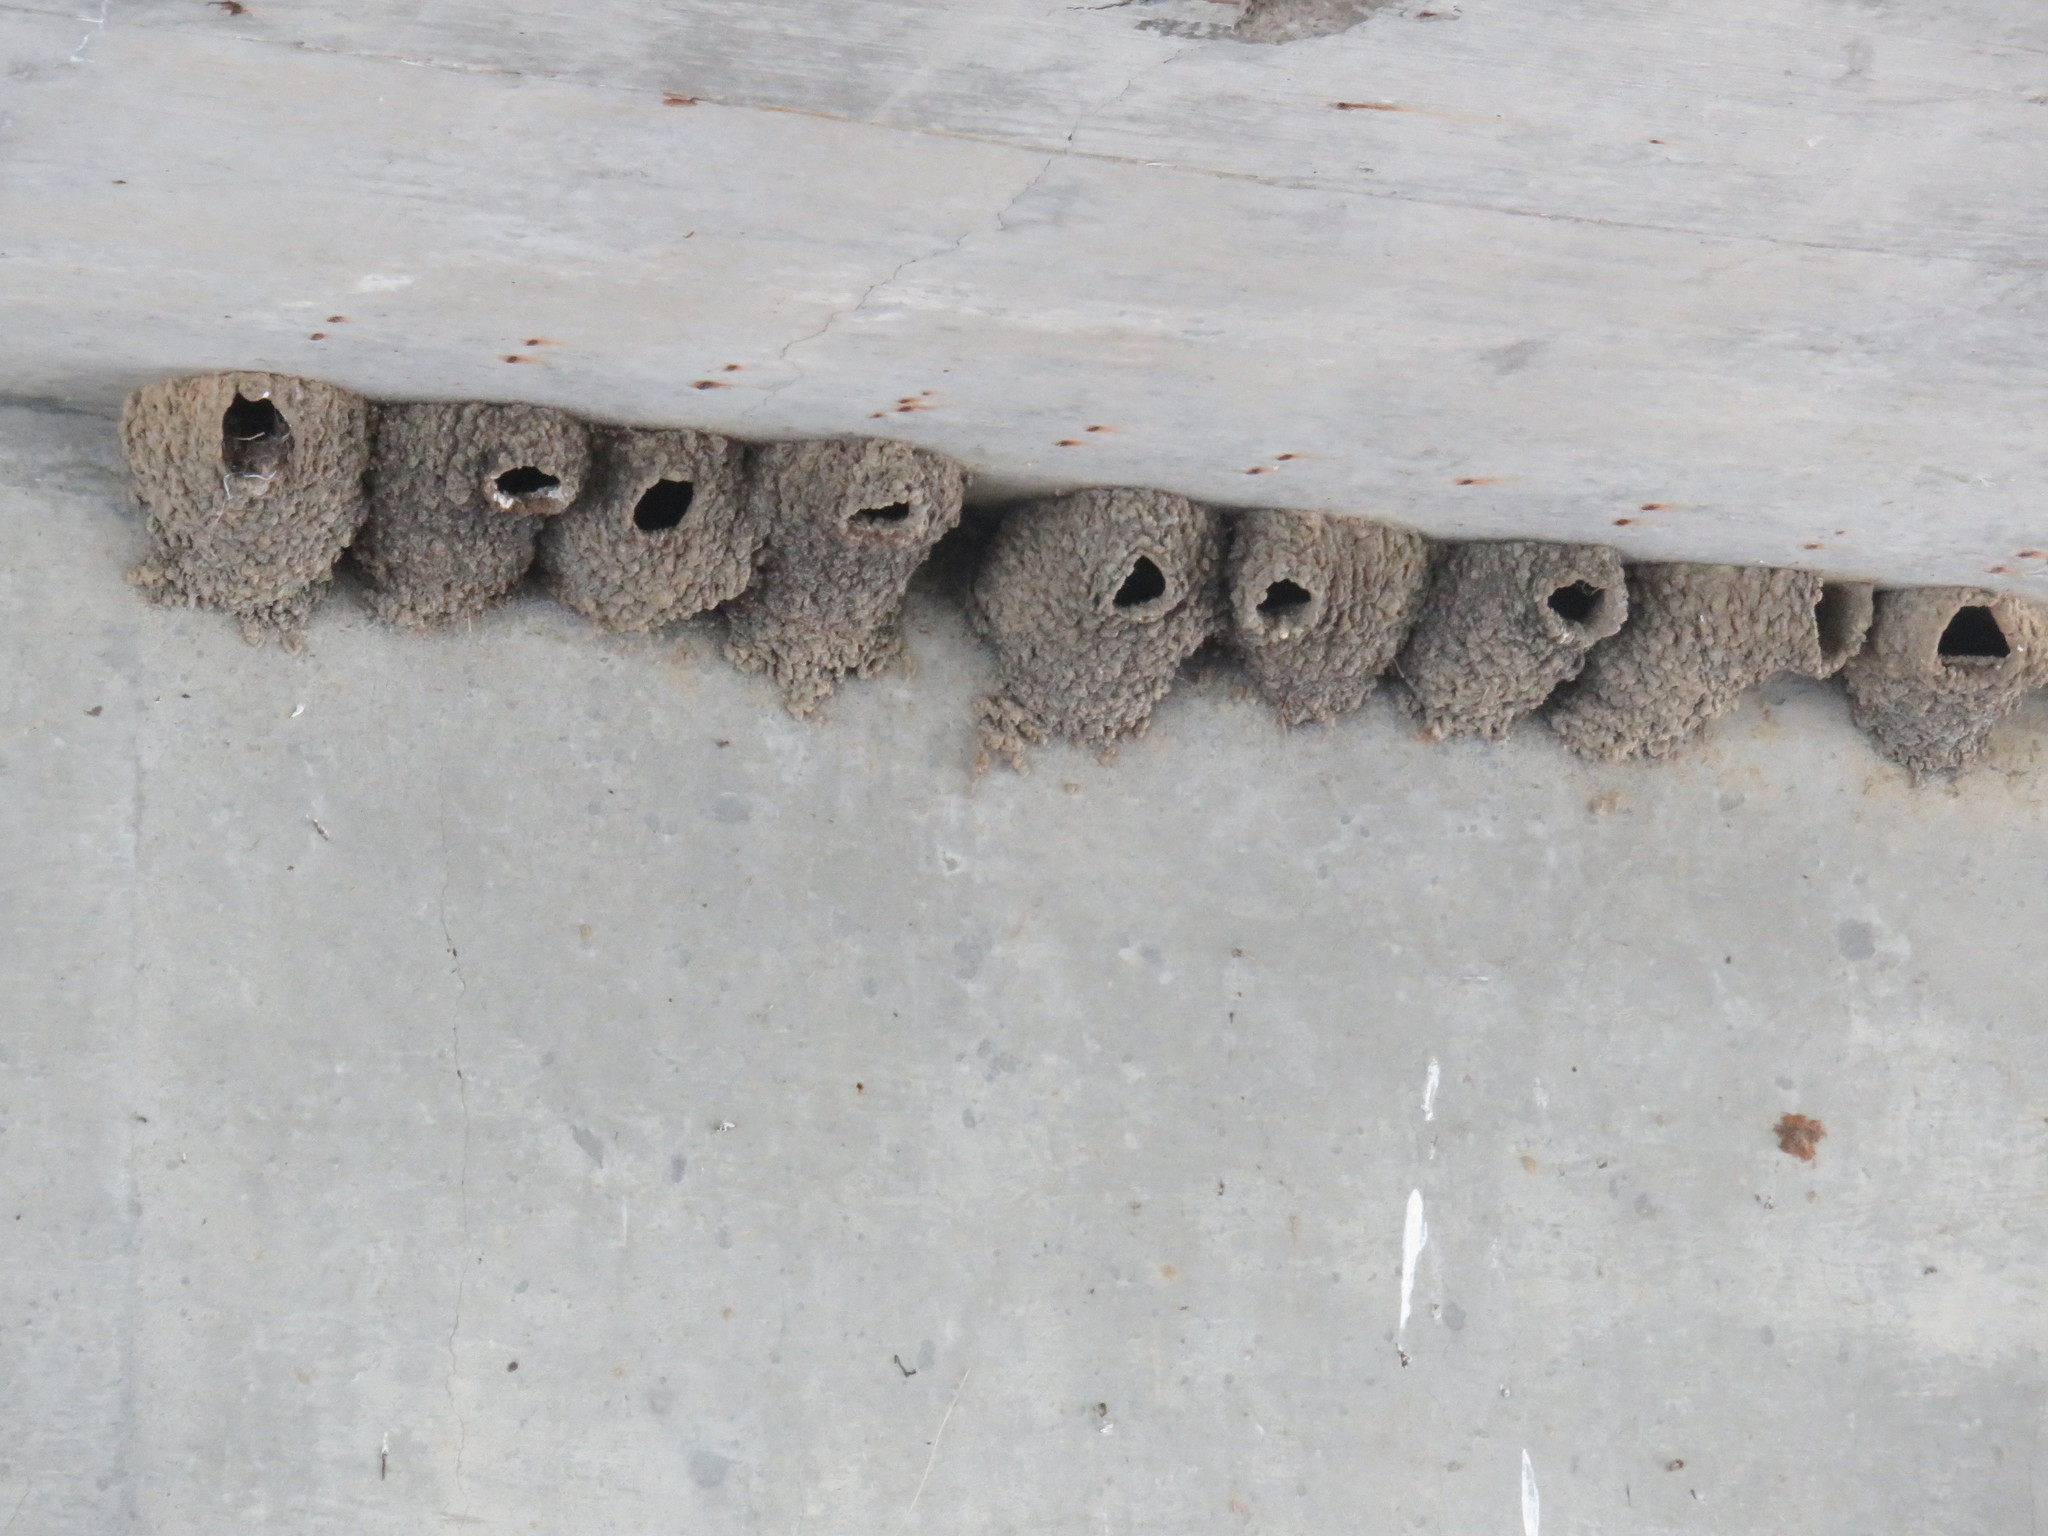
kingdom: Animalia
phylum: Chordata
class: Aves
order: Passeriformes
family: Hirundinidae
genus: Petrochelidon
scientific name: Petrochelidon pyrrhonota
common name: American cliff swallow
